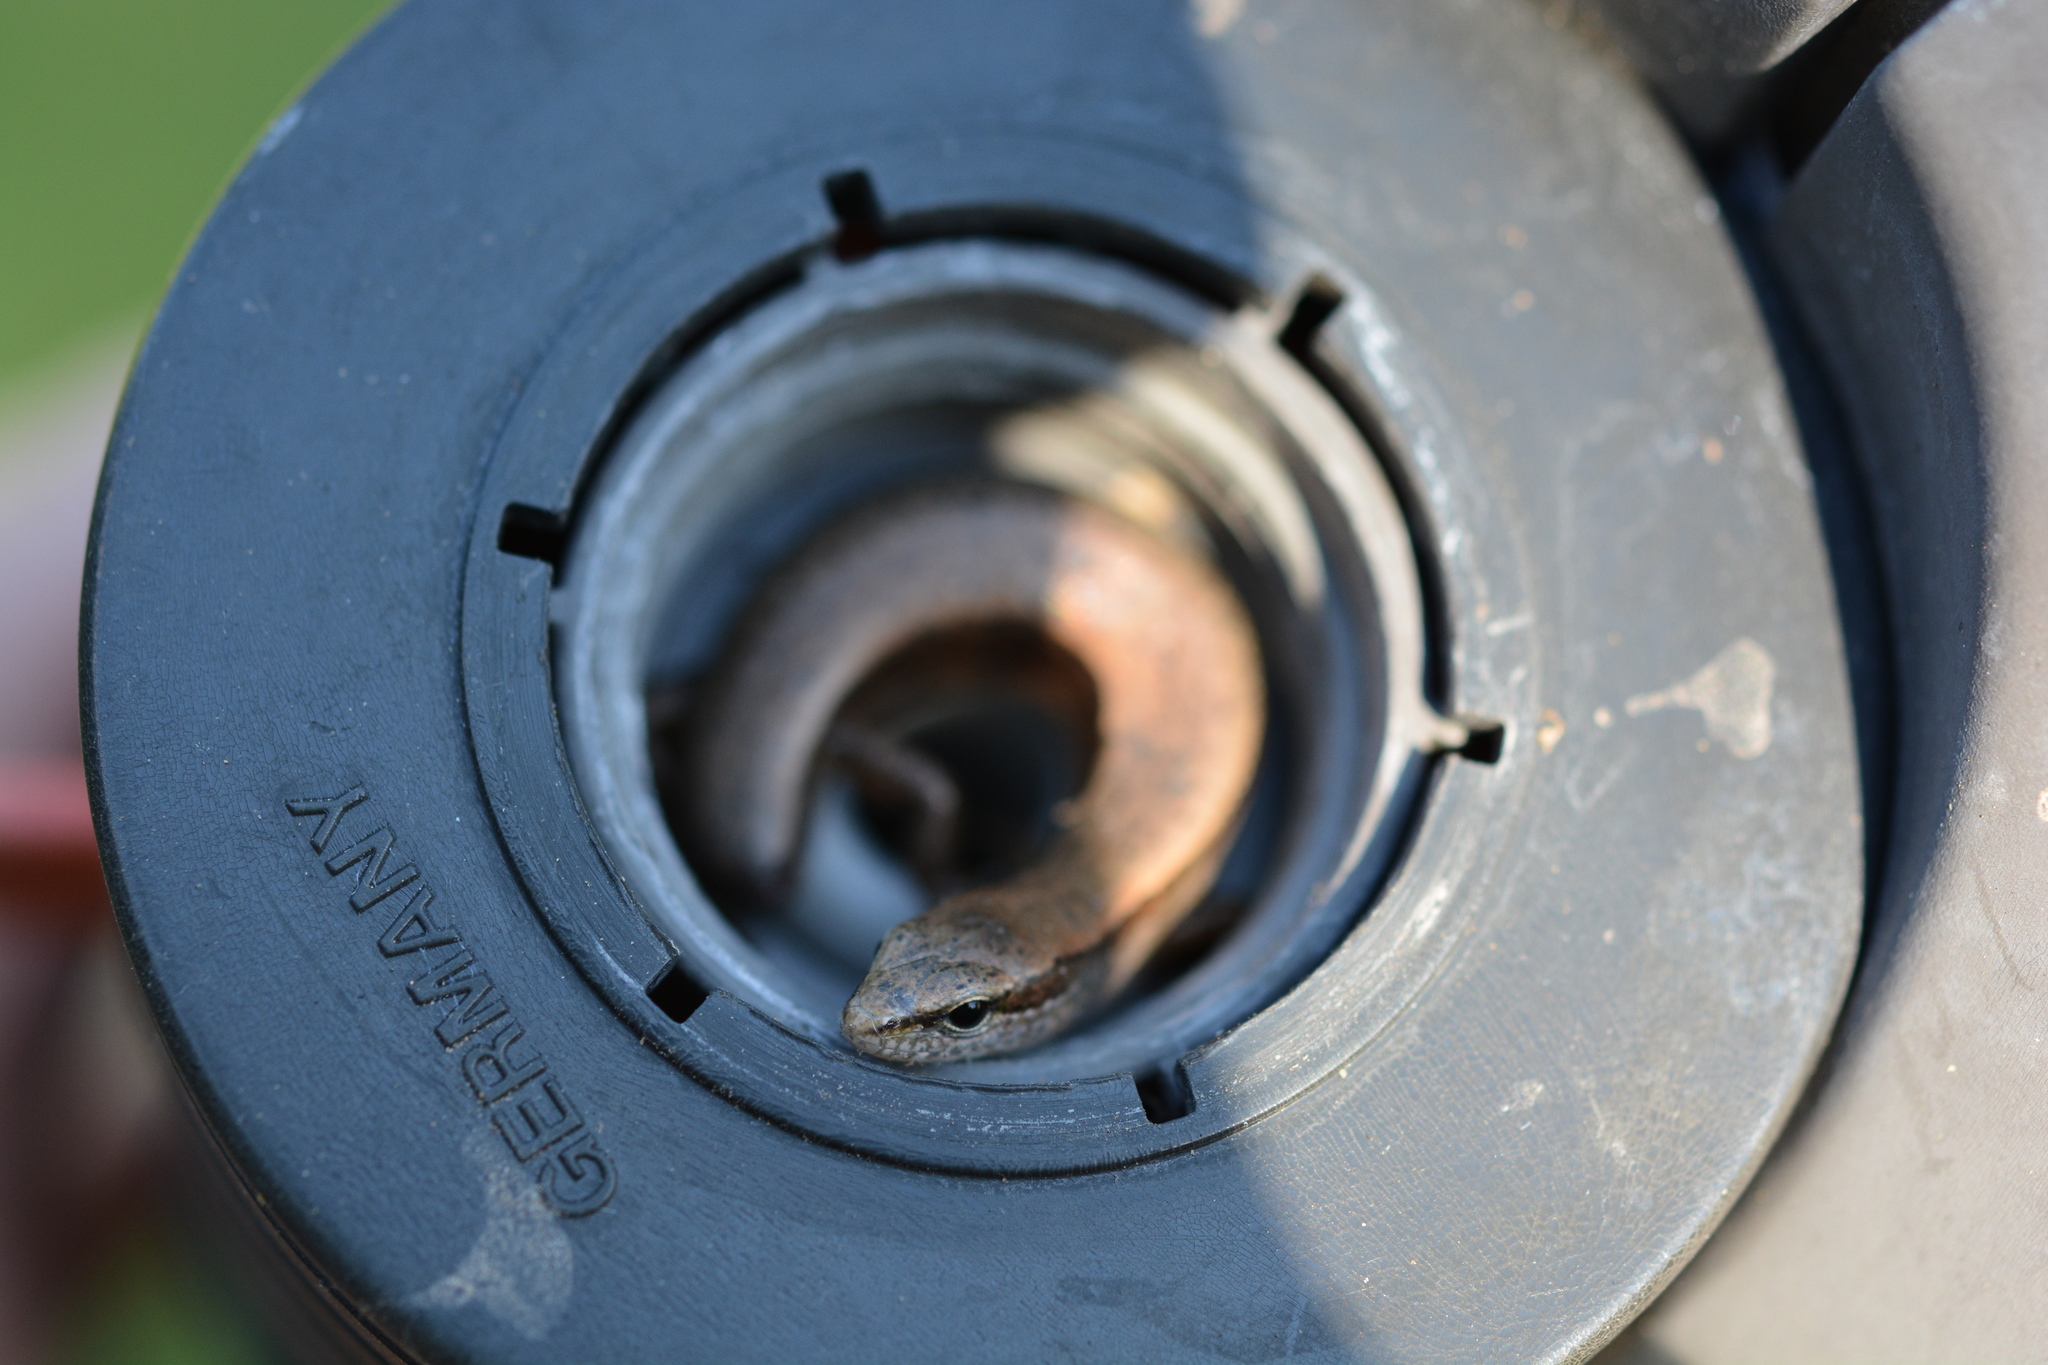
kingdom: Animalia
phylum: Chordata
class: Squamata
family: Scincidae
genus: Scincella
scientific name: Scincella lateralis
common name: Ground skink
